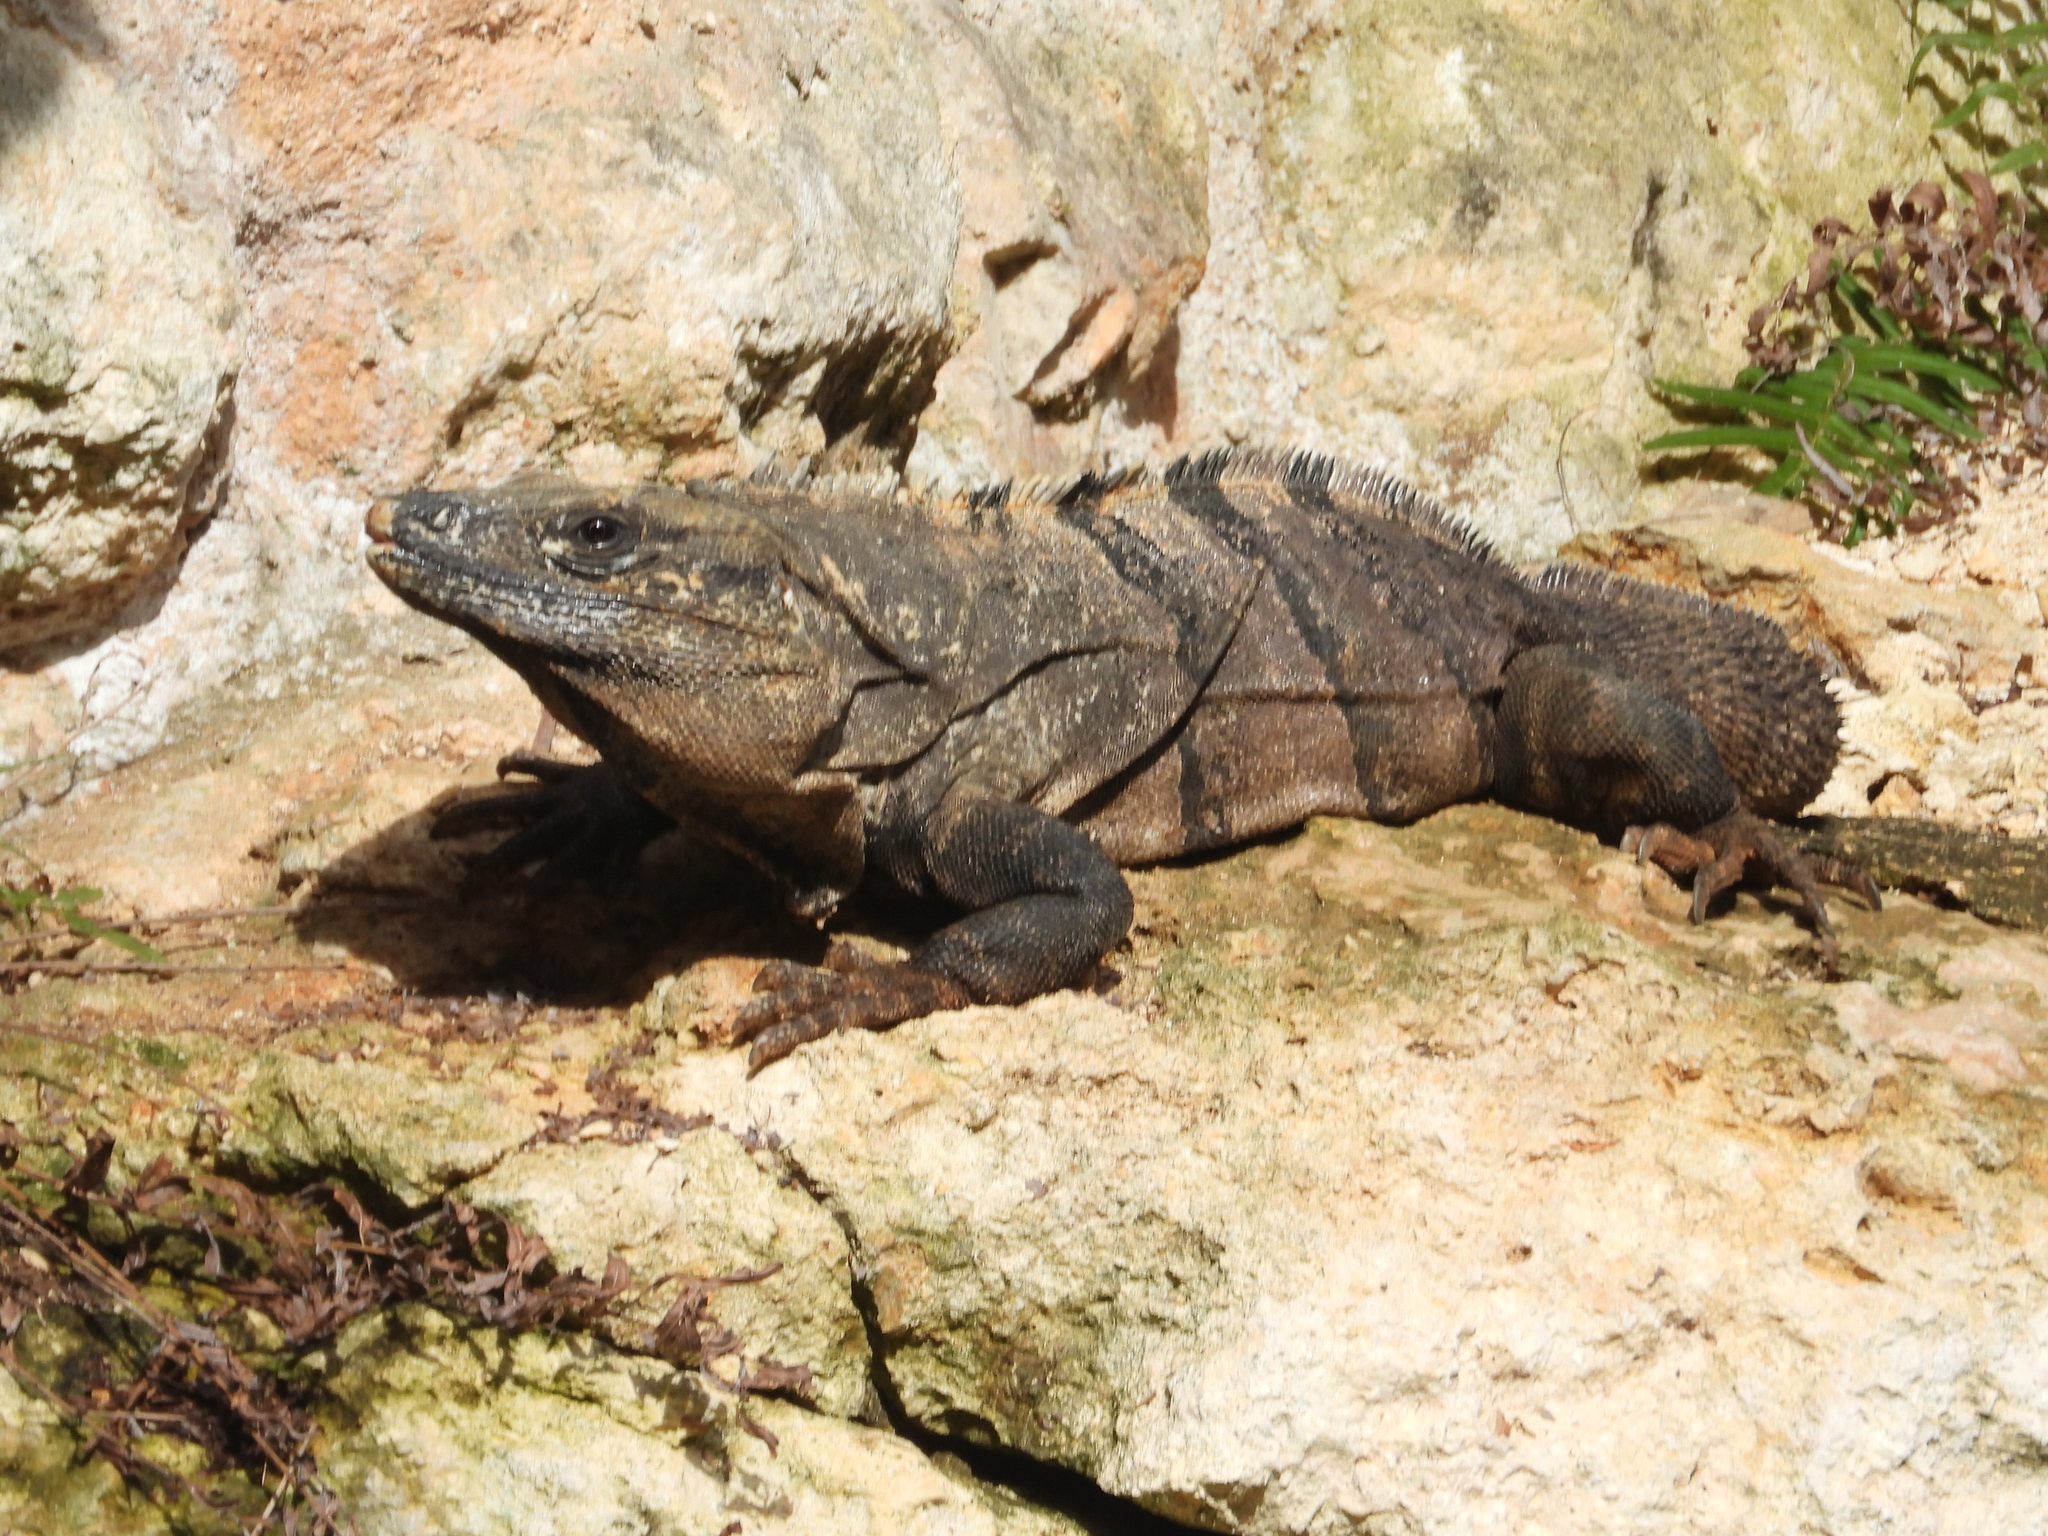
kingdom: Animalia
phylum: Chordata
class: Squamata
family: Iguanidae
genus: Ctenosaura
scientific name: Ctenosaura similis
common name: Black spiny-tailed iguana
